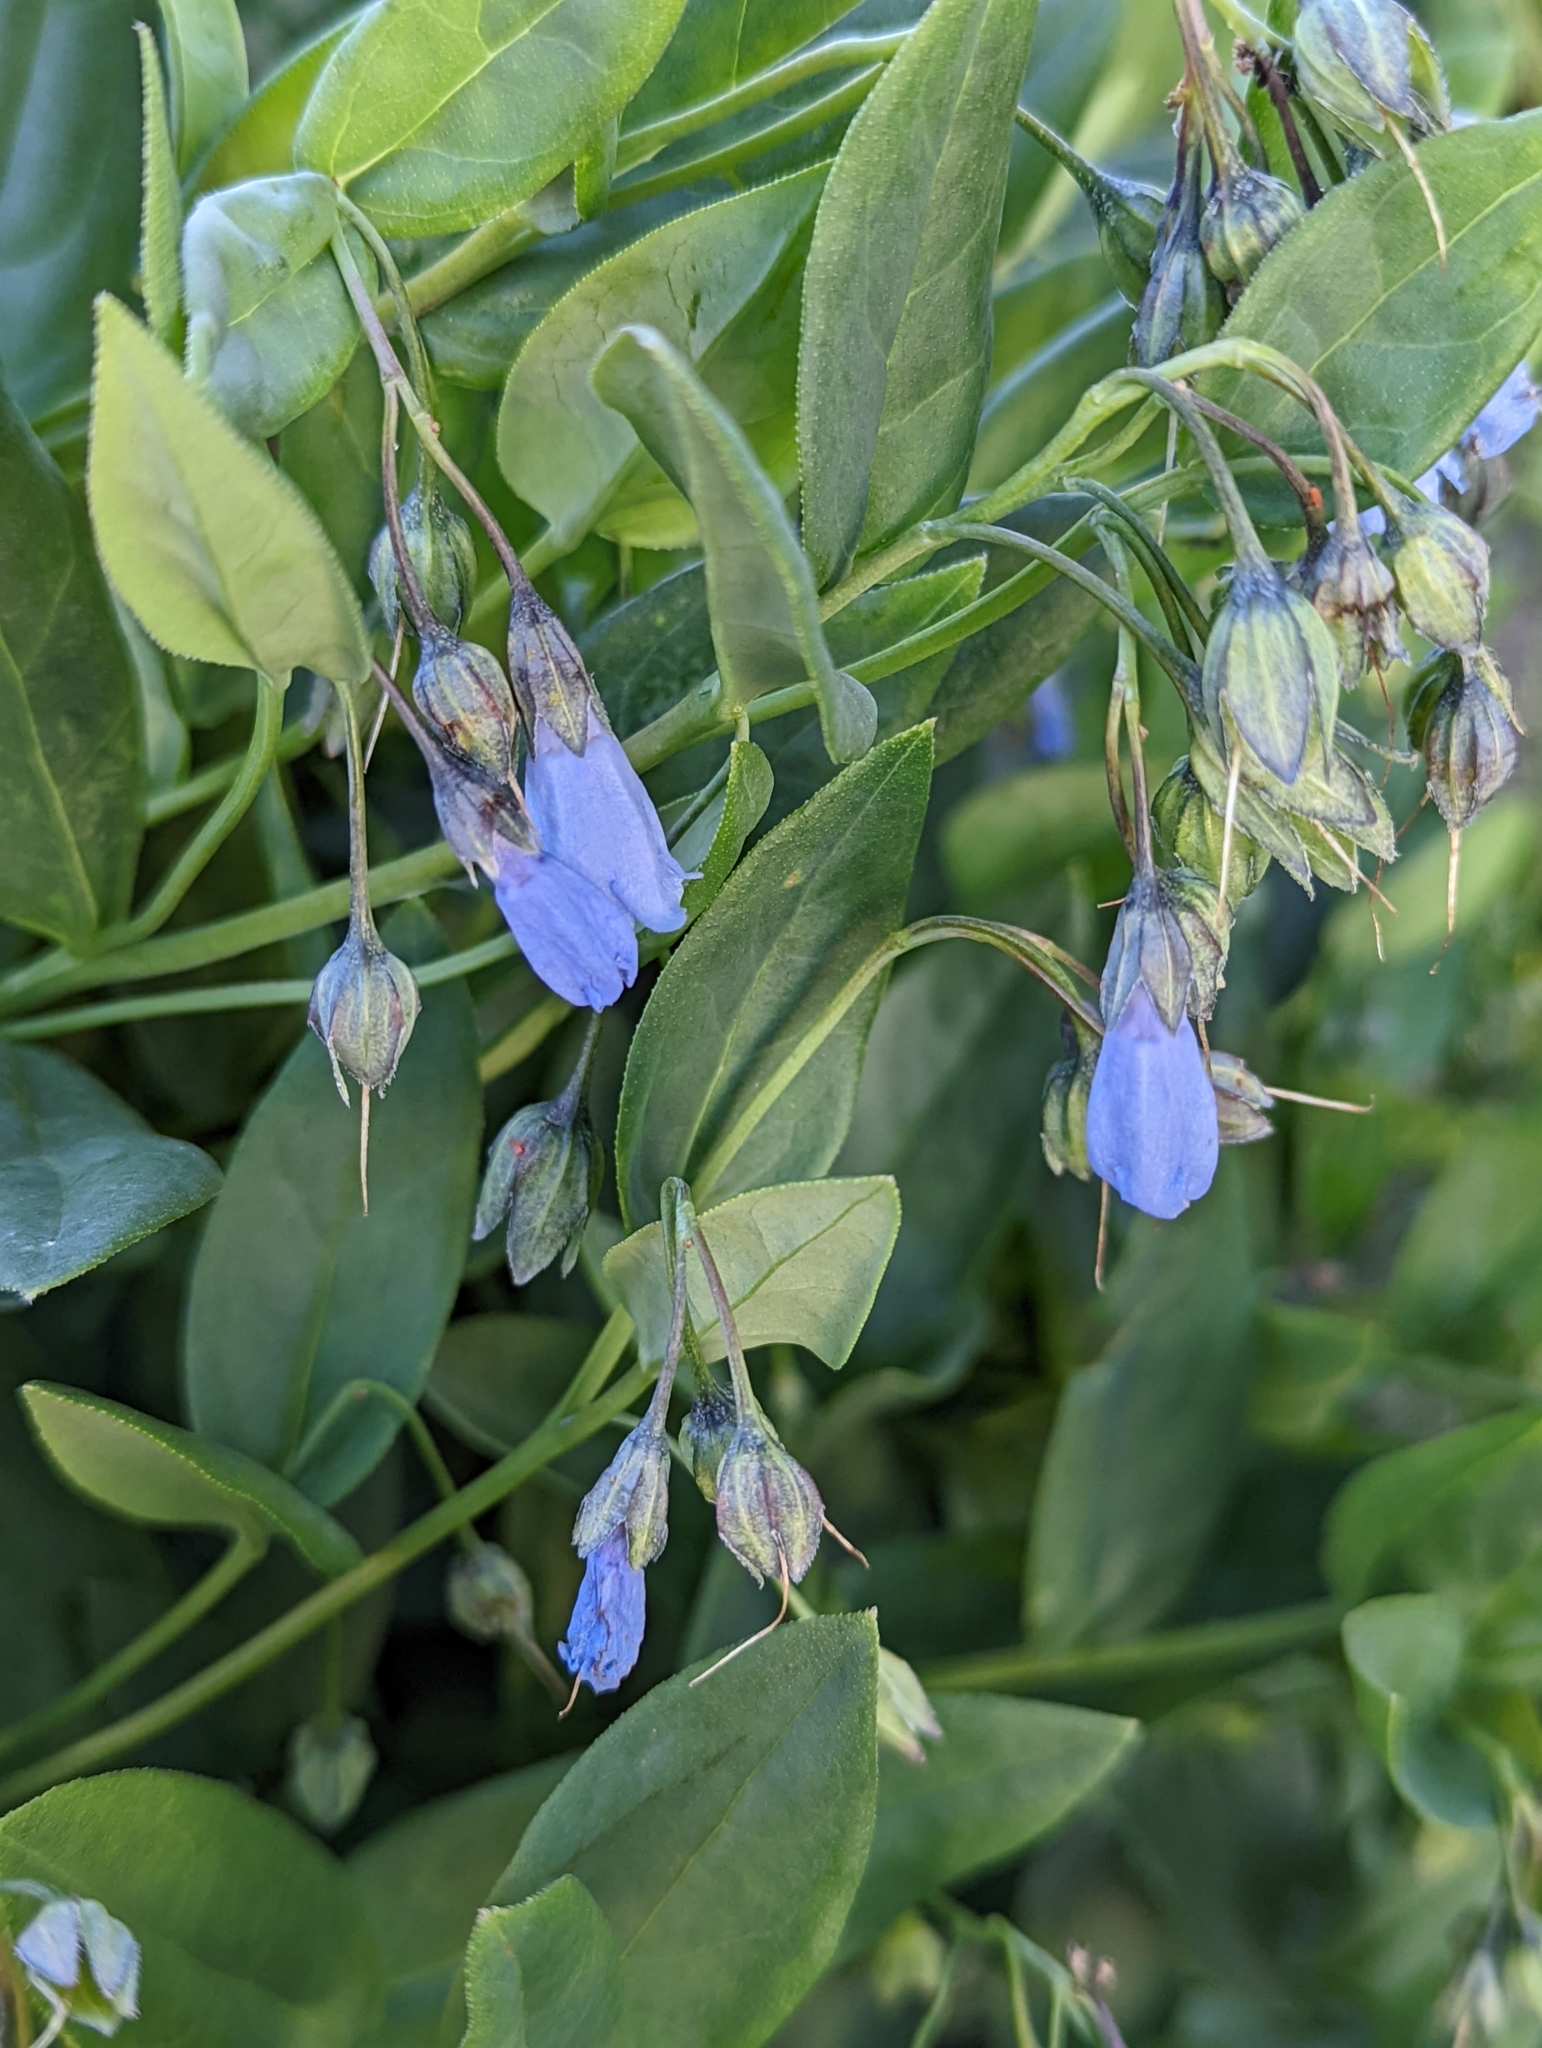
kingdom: Plantae
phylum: Tracheophyta
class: Magnoliopsida
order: Boraginales
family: Boraginaceae
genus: Mertensia
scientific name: Mertensia arizonica
